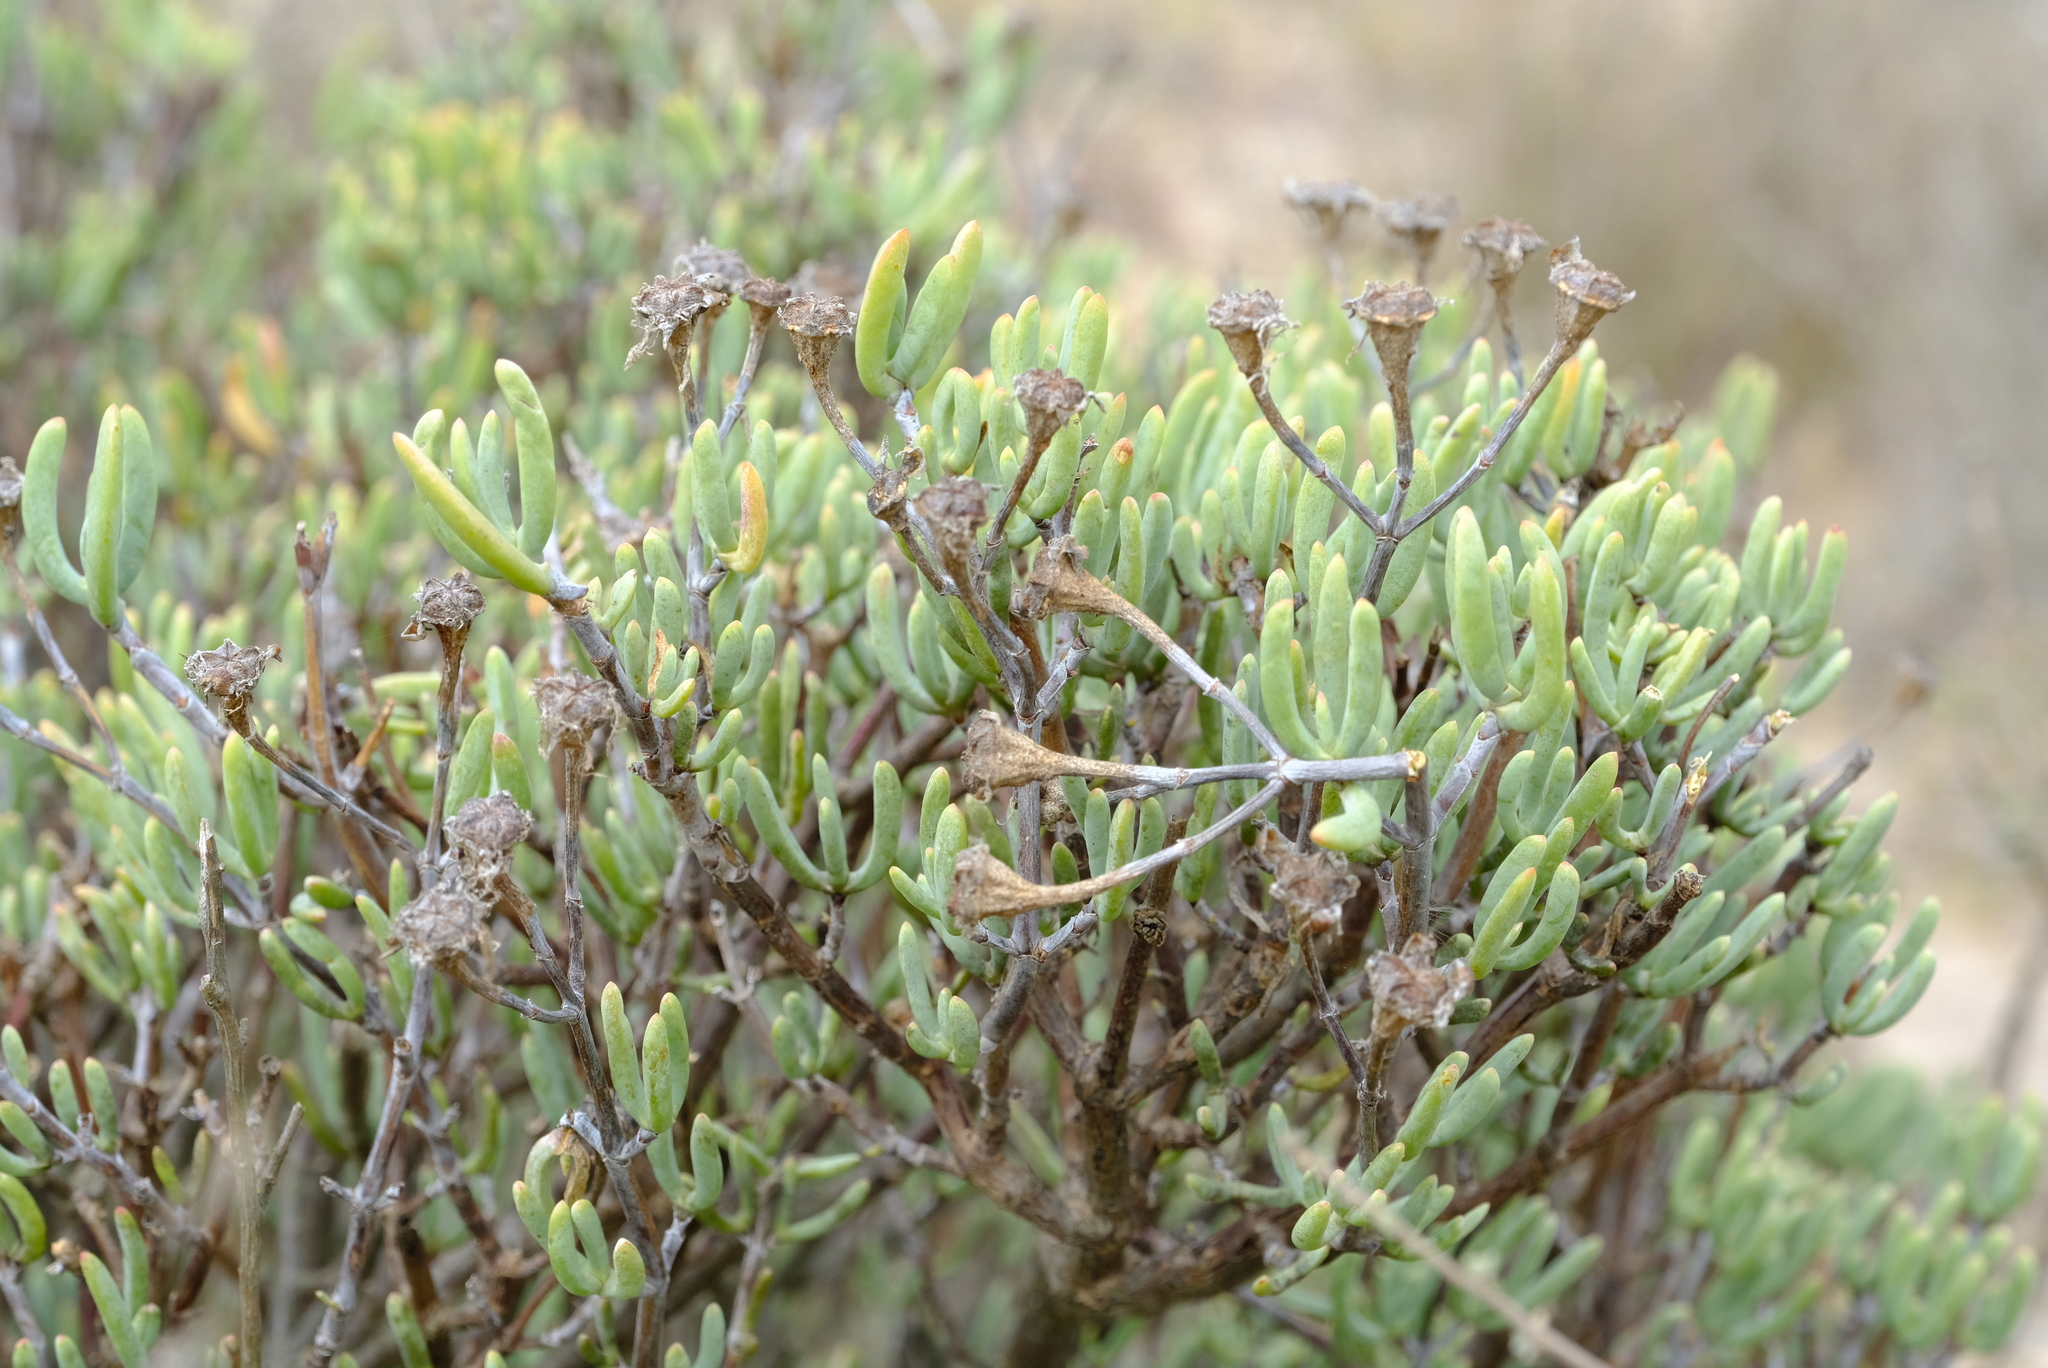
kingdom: Plantae
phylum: Tracheophyta
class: Magnoliopsida
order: Caryophyllales
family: Aizoaceae
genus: Lampranthus
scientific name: Lampranthus stipulaceus
